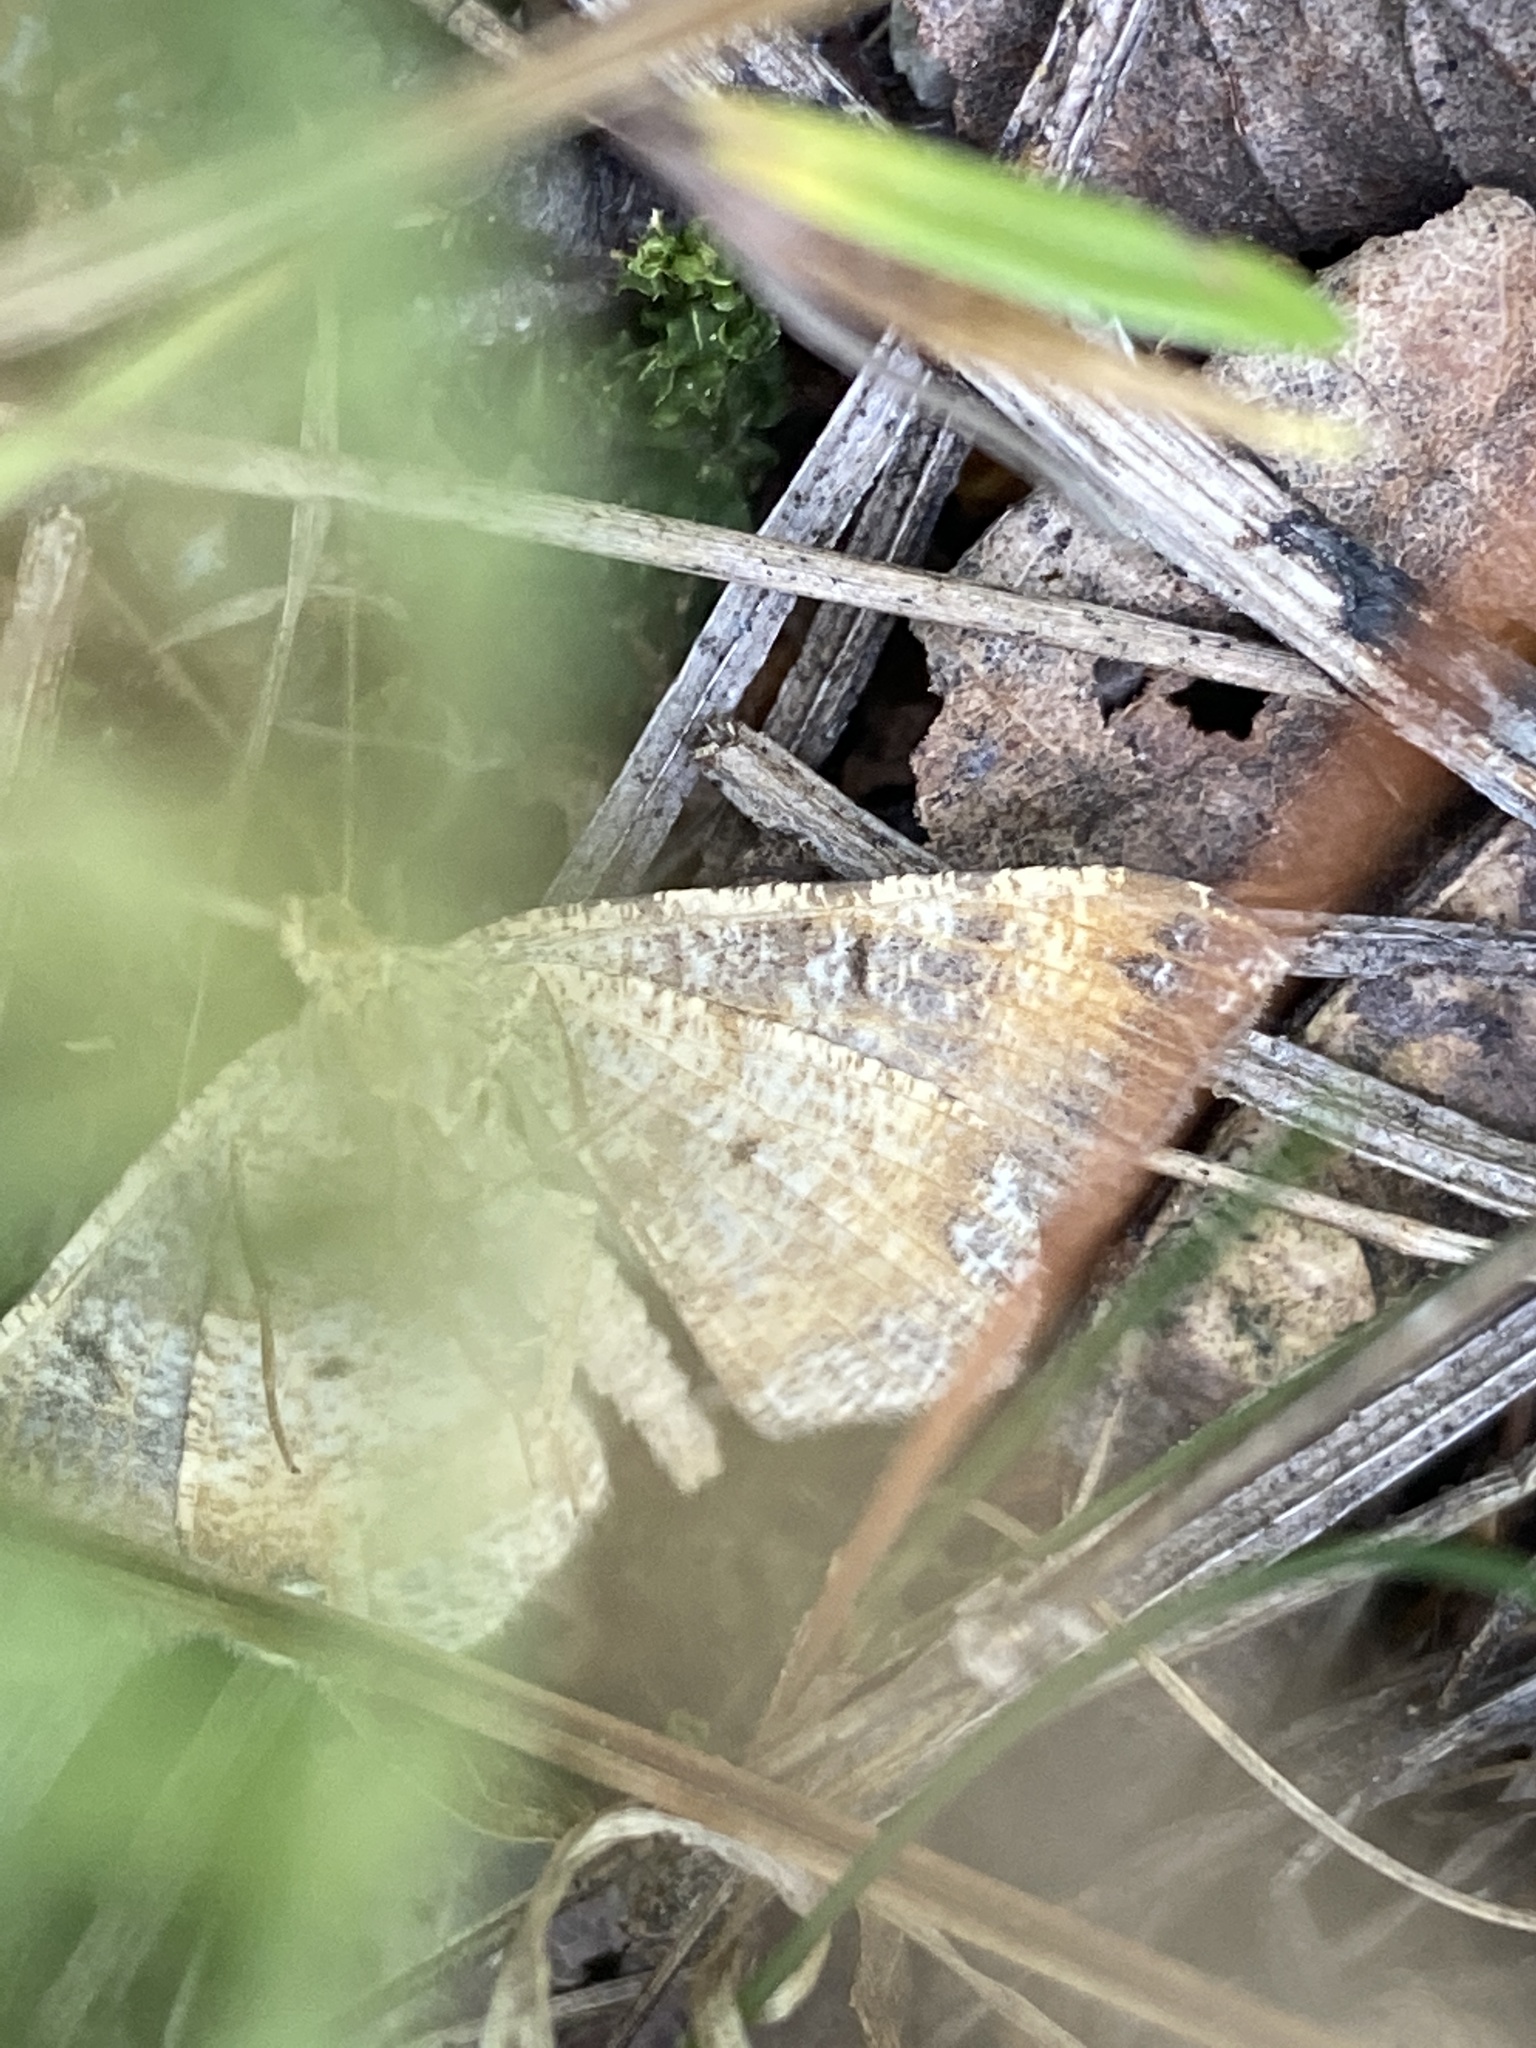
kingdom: Animalia
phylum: Arthropoda
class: Insecta
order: Lepidoptera
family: Geometridae
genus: Macaria
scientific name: Macaria liturata
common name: Tawny-barred angle
